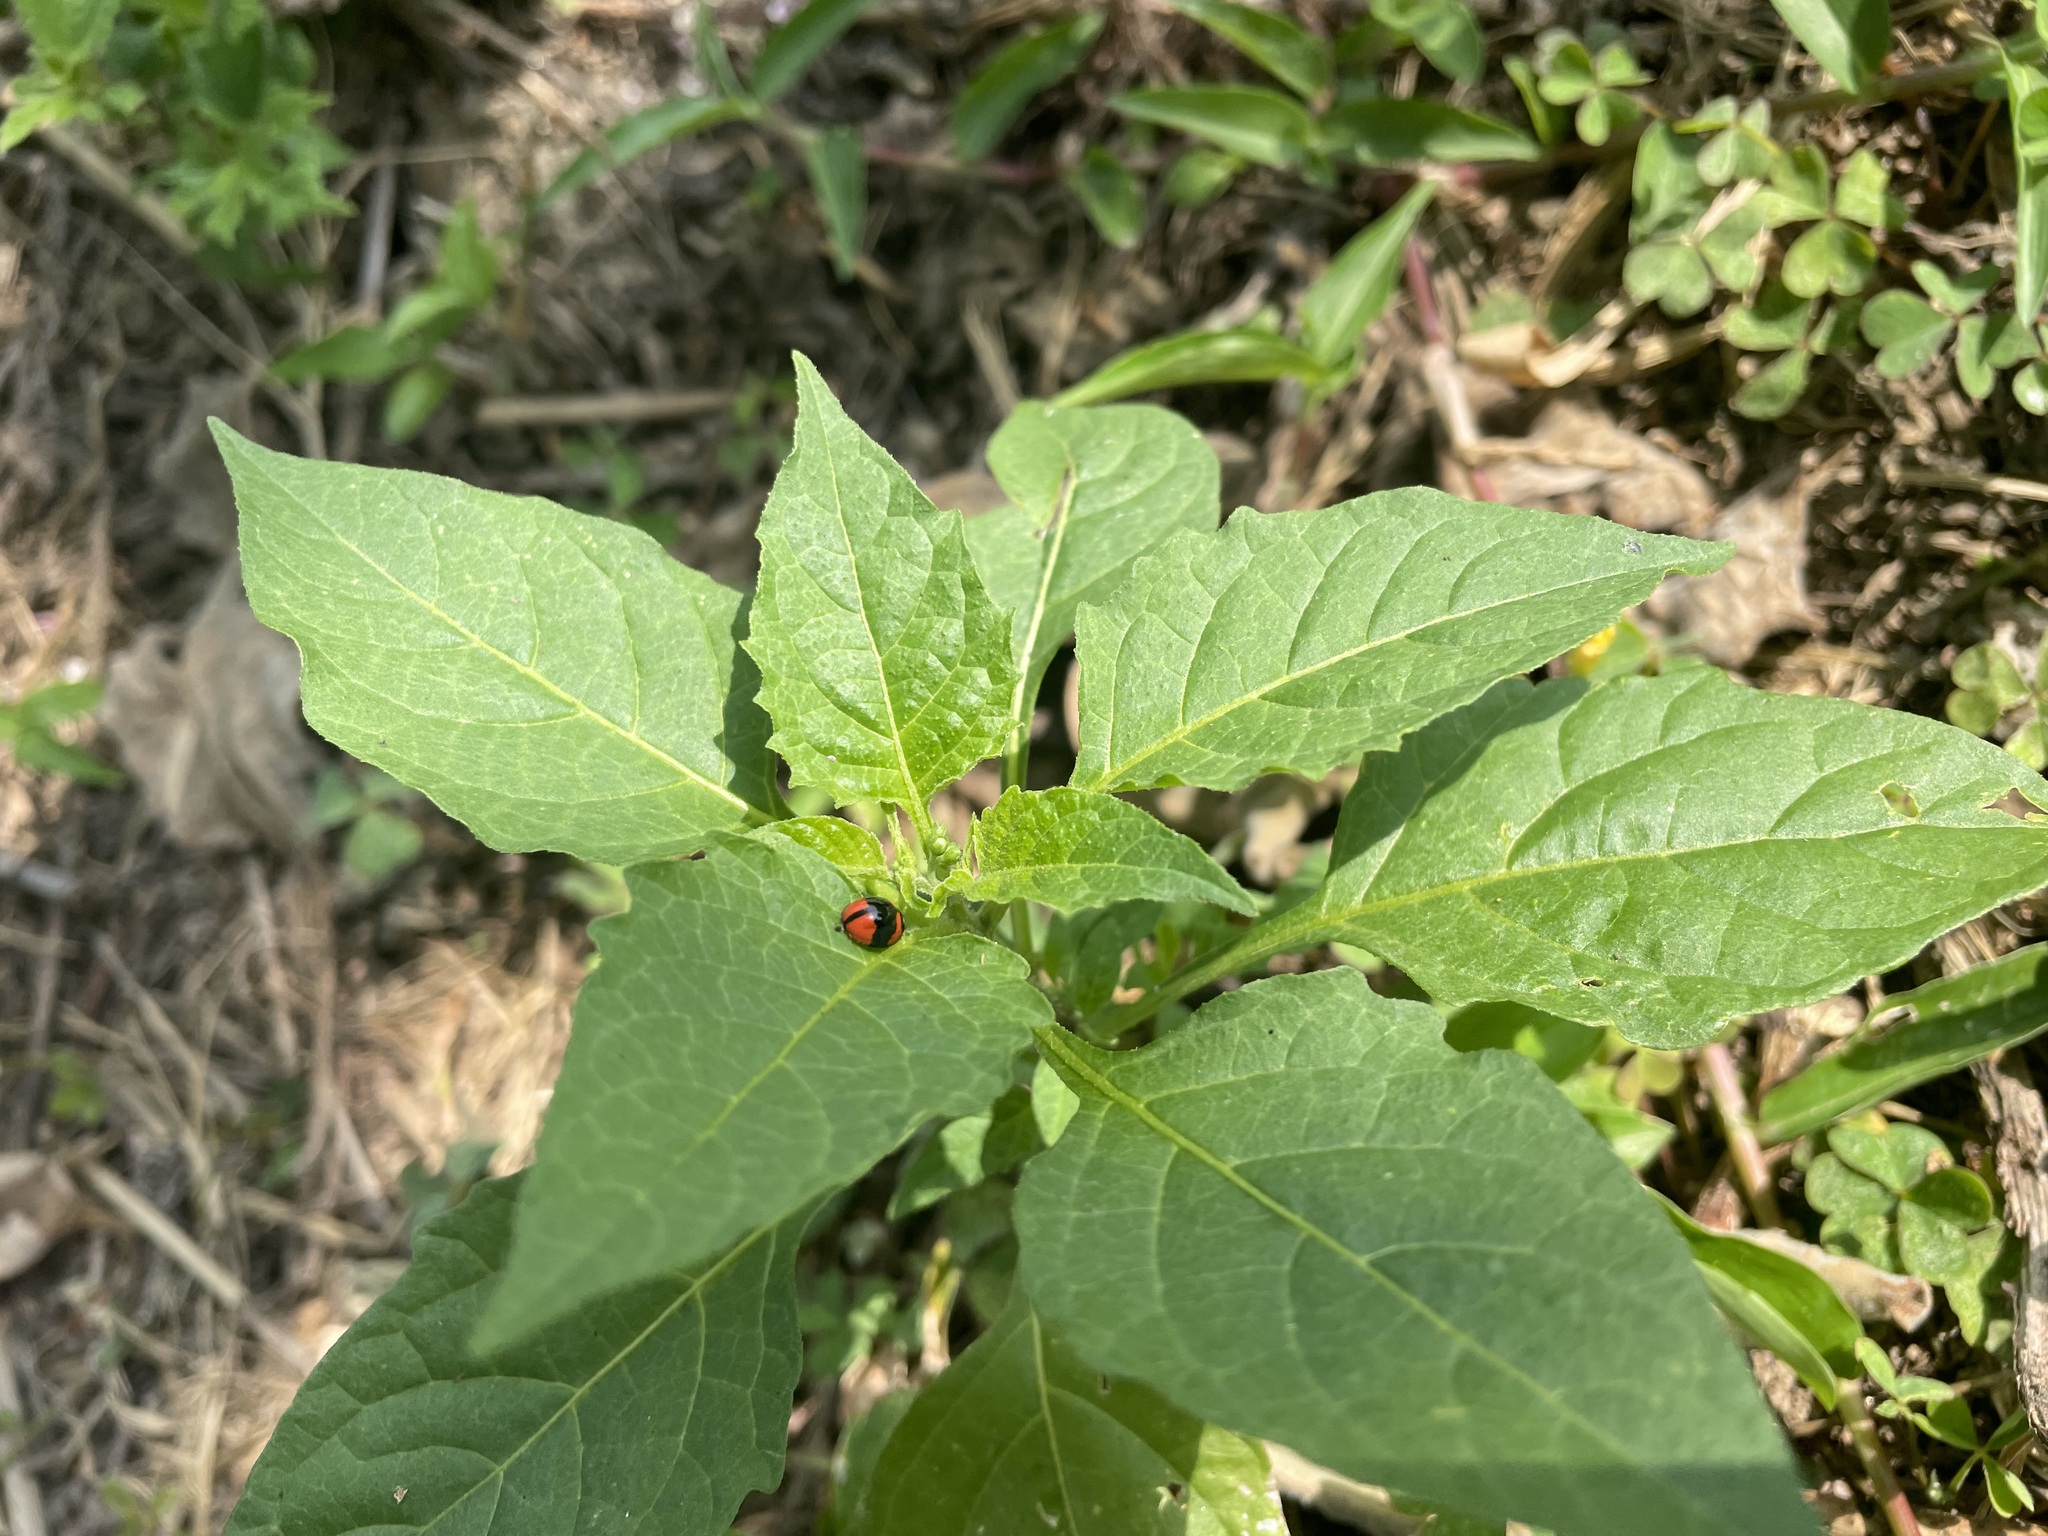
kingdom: Animalia
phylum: Arthropoda
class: Insecta
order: Coleoptera
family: Coccinellidae
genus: Cheilomenes
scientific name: Cheilomenes sexmaculata
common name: Ladybird beetle
